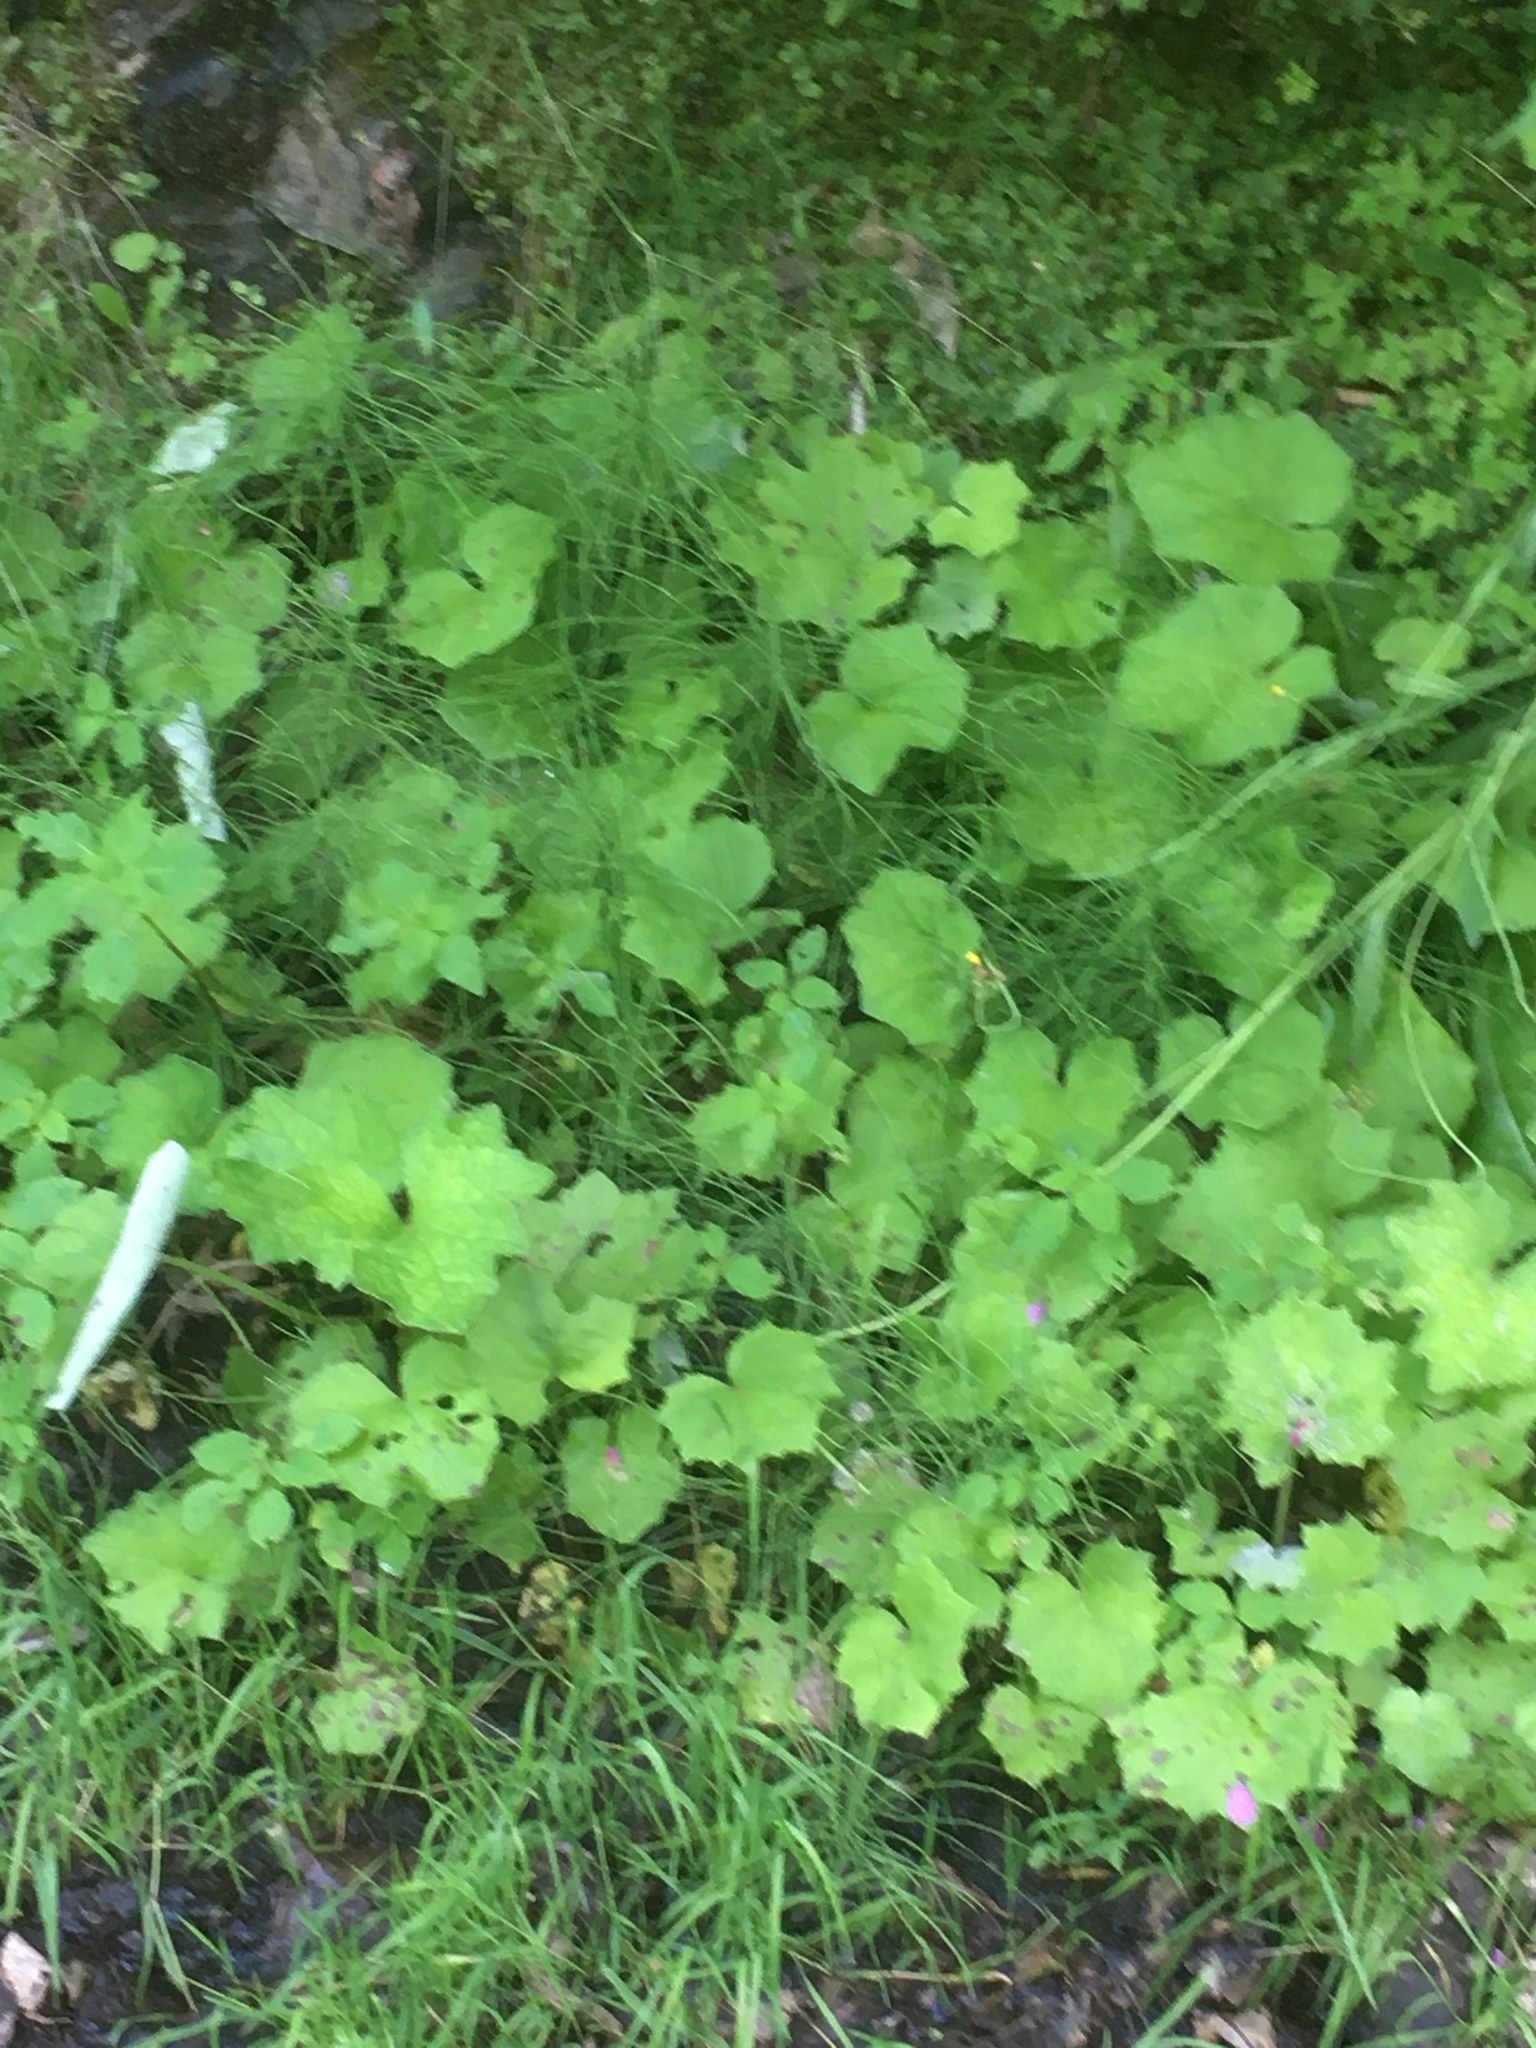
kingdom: Plantae
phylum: Tracheophyta
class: Polypodiopsida
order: Equisetales
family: Equisetaceae
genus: Equisetum
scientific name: Equisetum arvense
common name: Field horsetail
